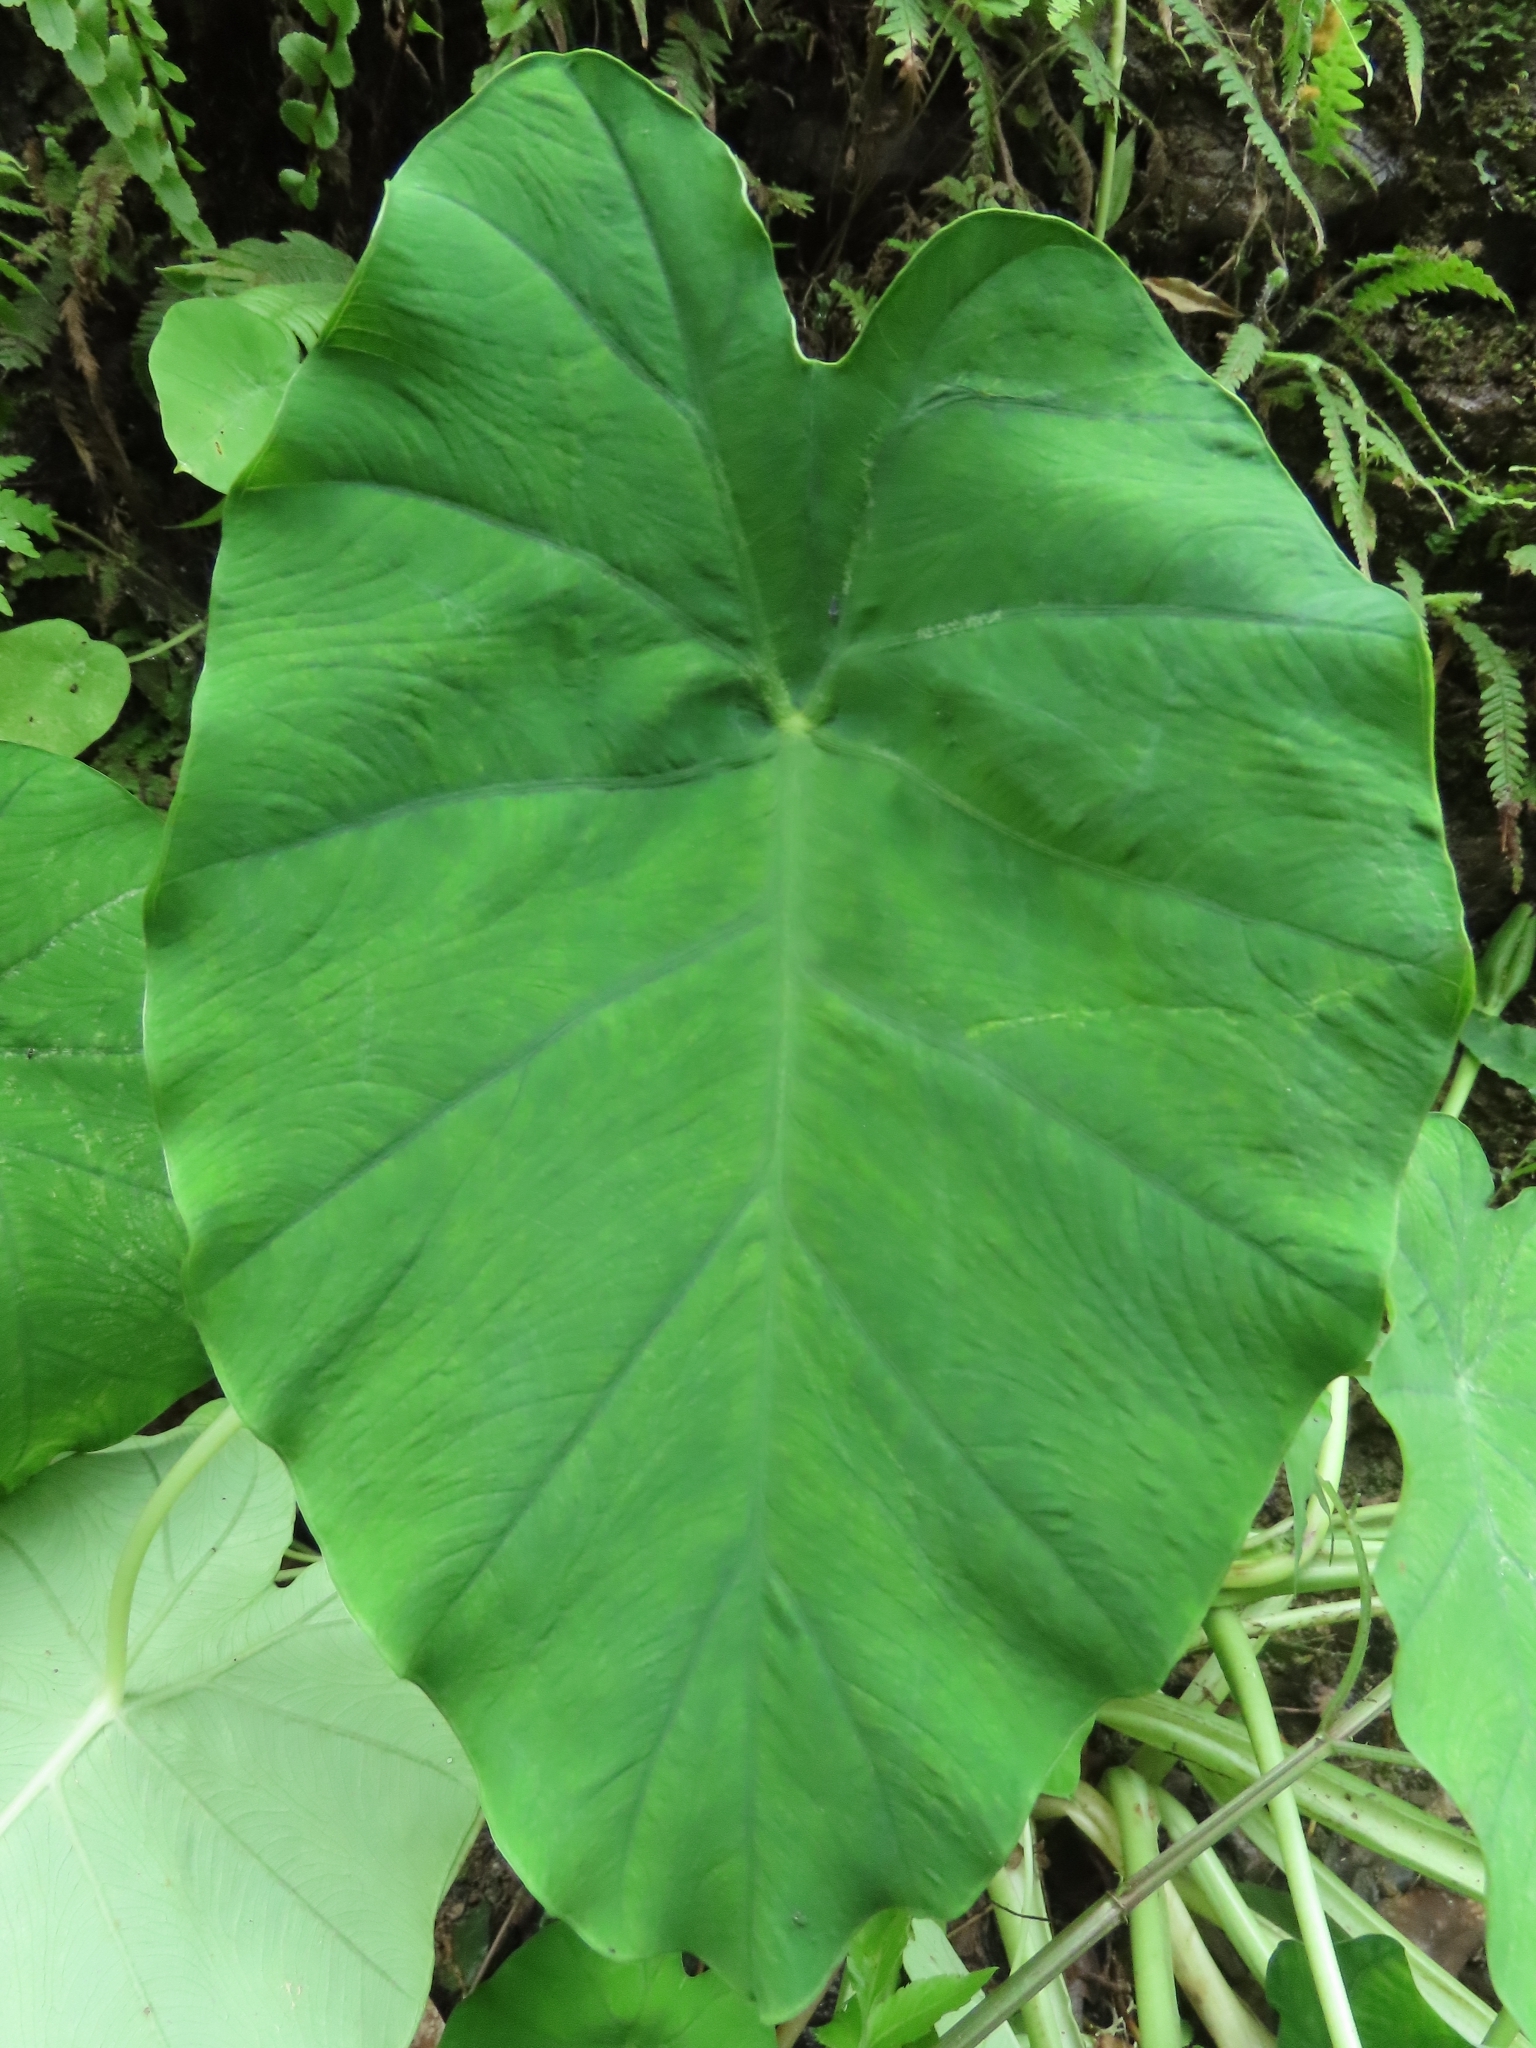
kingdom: Plantae
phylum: Tracheophyta
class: Liliopsida
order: Alismatales
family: Araceae
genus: Colocasia
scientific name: Colocasia esculenta
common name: Taro
